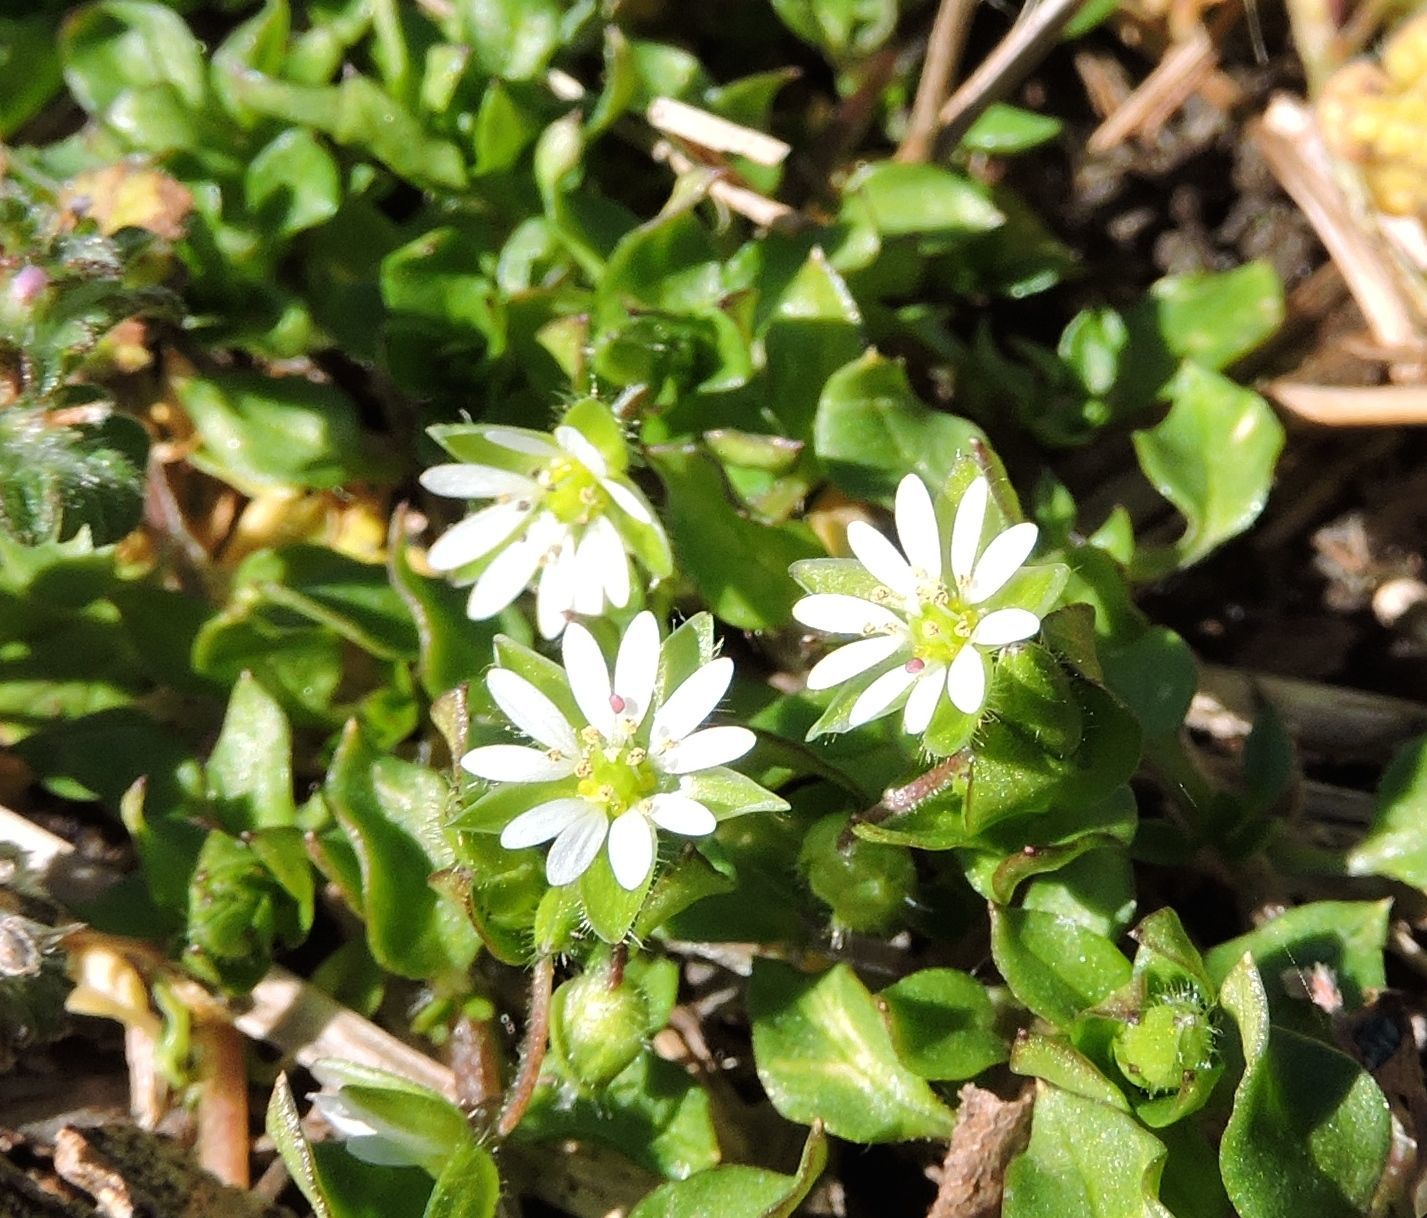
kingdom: Plantae
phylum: Tracheophyta
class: Magnoliopsida
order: Caryophyllales
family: Caryophyllaceae
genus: Stellaria
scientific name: Stellaria media
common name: Common chickweed
